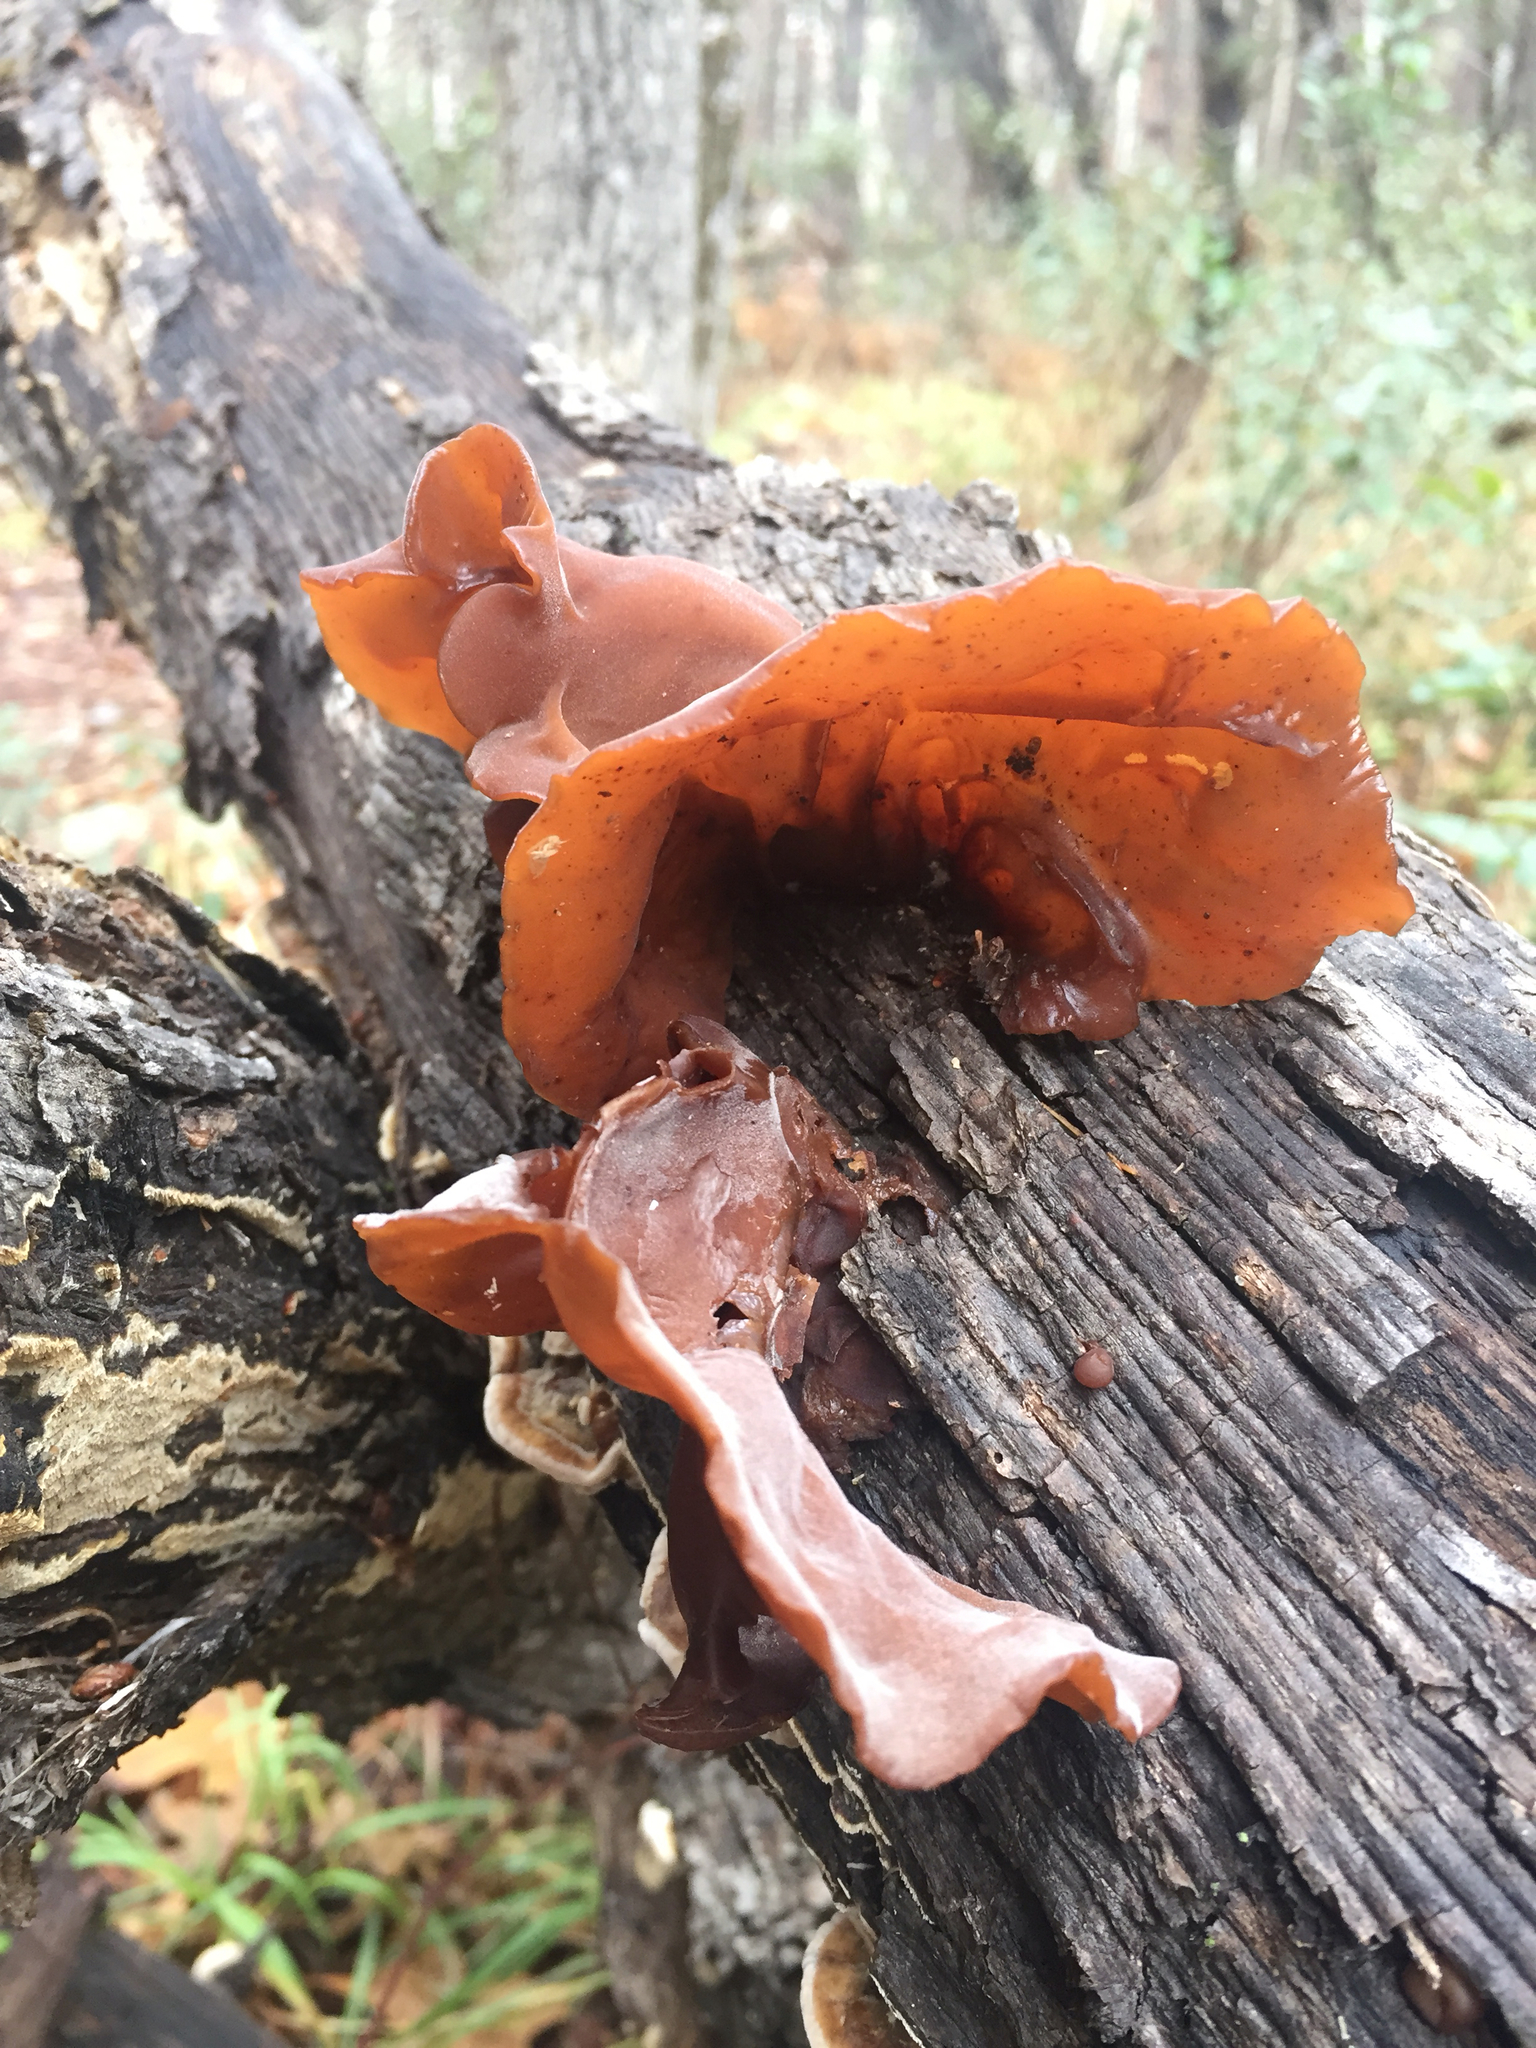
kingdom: Fungi
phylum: Basidiomycota
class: Agaricomycetes
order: Auriculariales
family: Auriculariaceae
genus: Auricularia
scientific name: Auricularia angiospermarum
